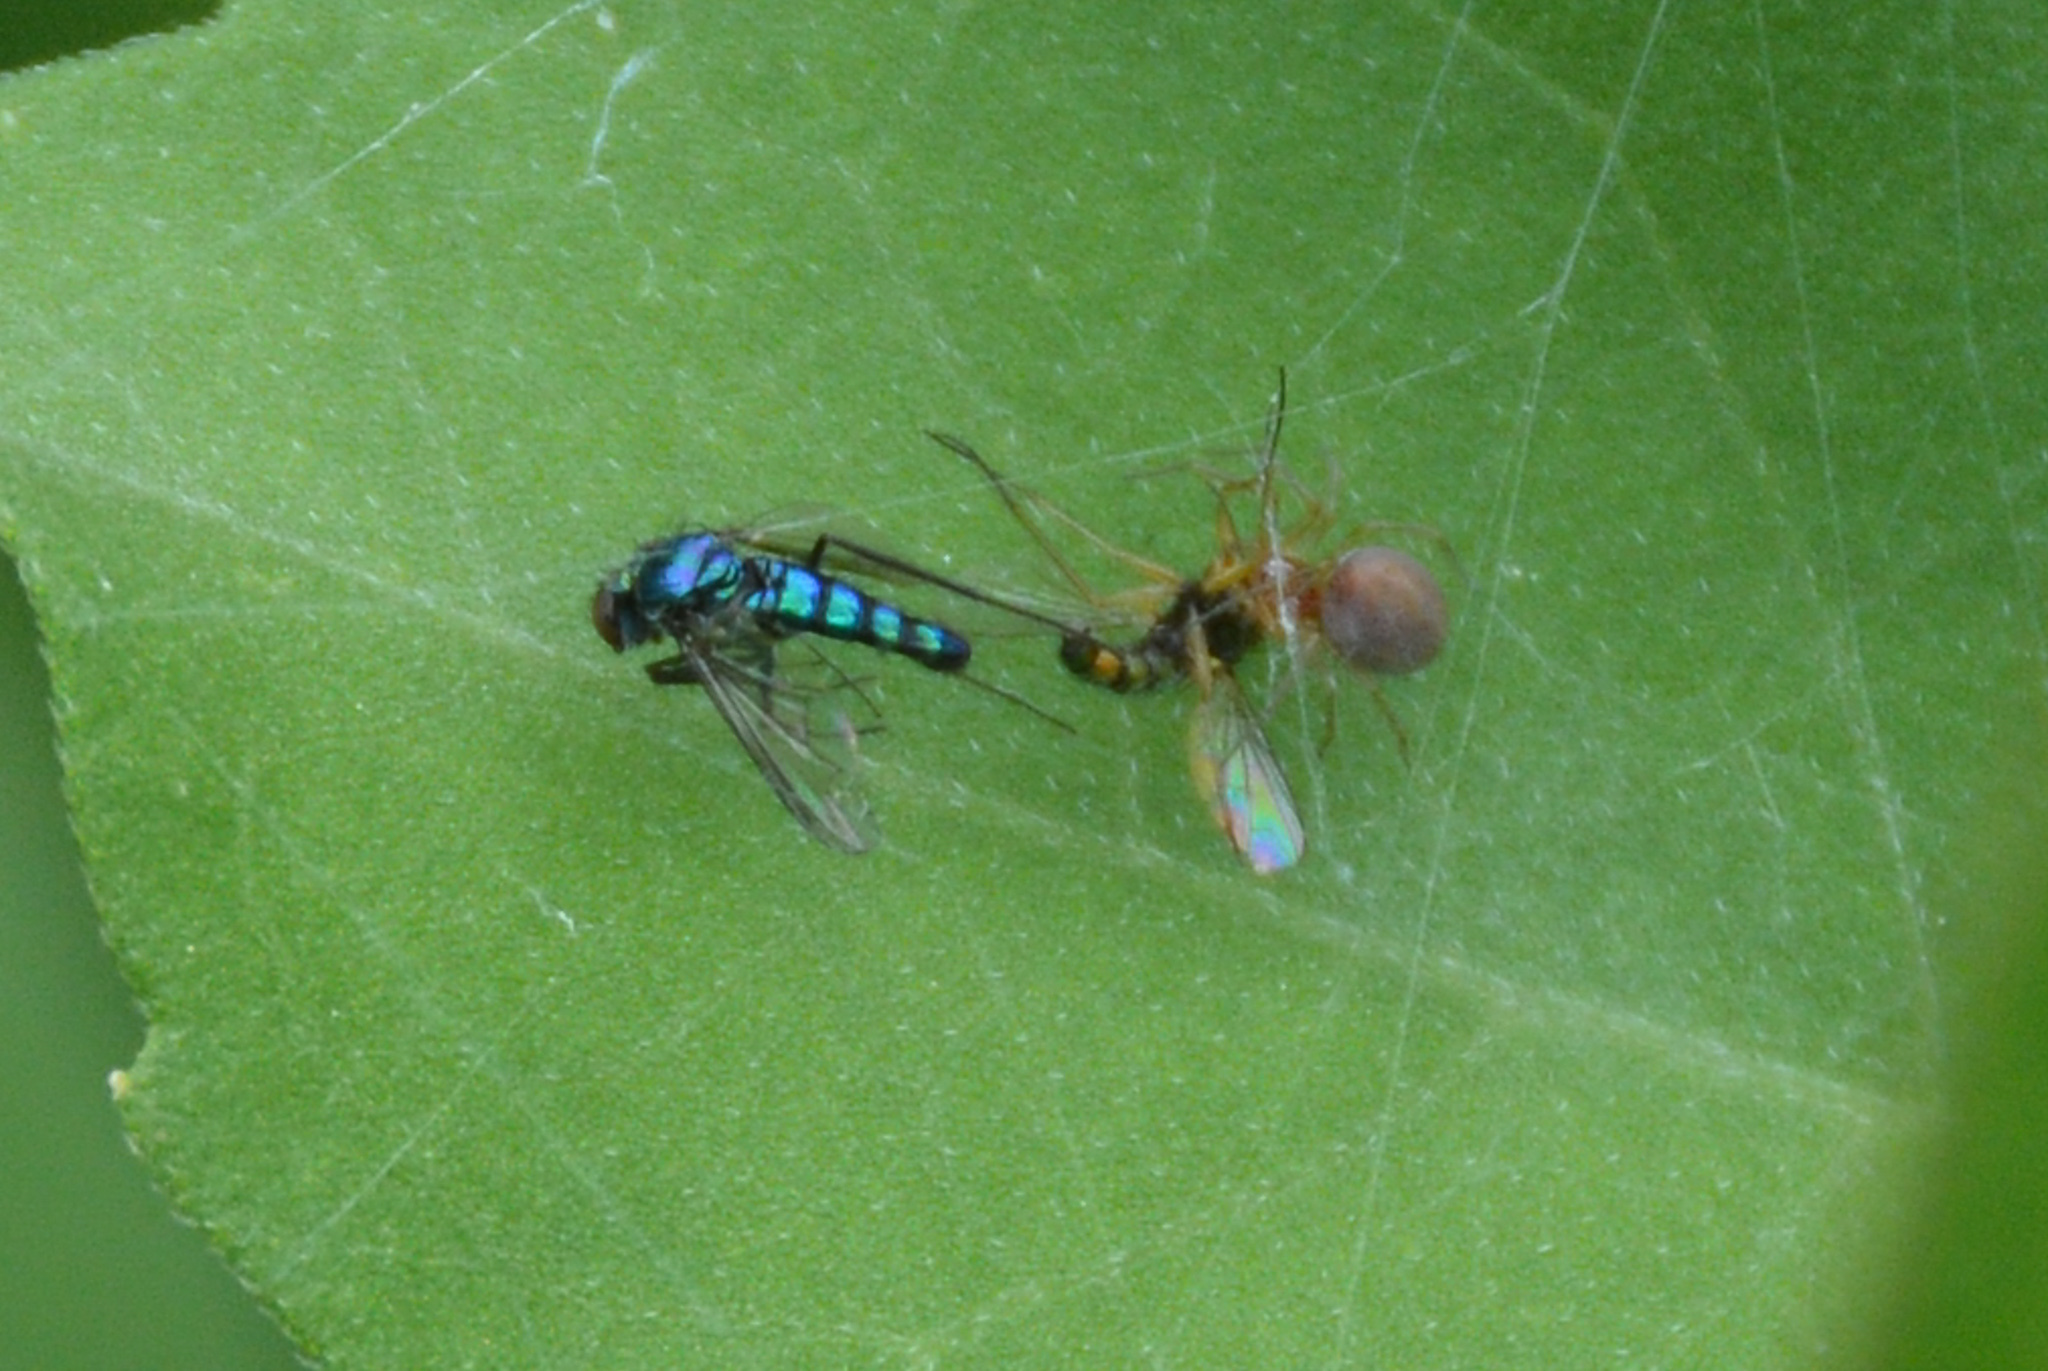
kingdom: Animalia
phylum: Arthropoda
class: Insecta
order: Diptera
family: Dolichopodidae
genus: Condylostylus
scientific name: Condylostylus longicornis
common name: Long-legged fly
